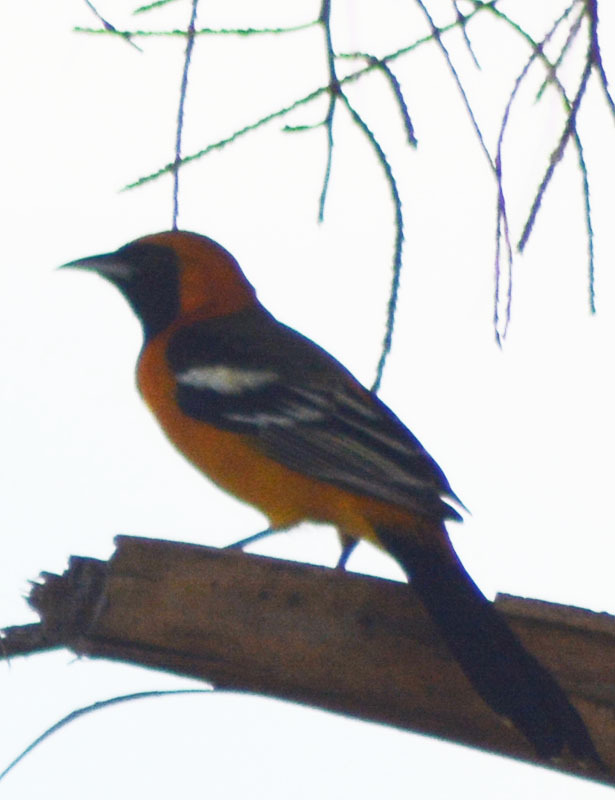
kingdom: Animalia
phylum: Chordata
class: Aves
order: Passeriformes
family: Icteridae
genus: Icterus
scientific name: Icterus cucullatus
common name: Hooded oriole
